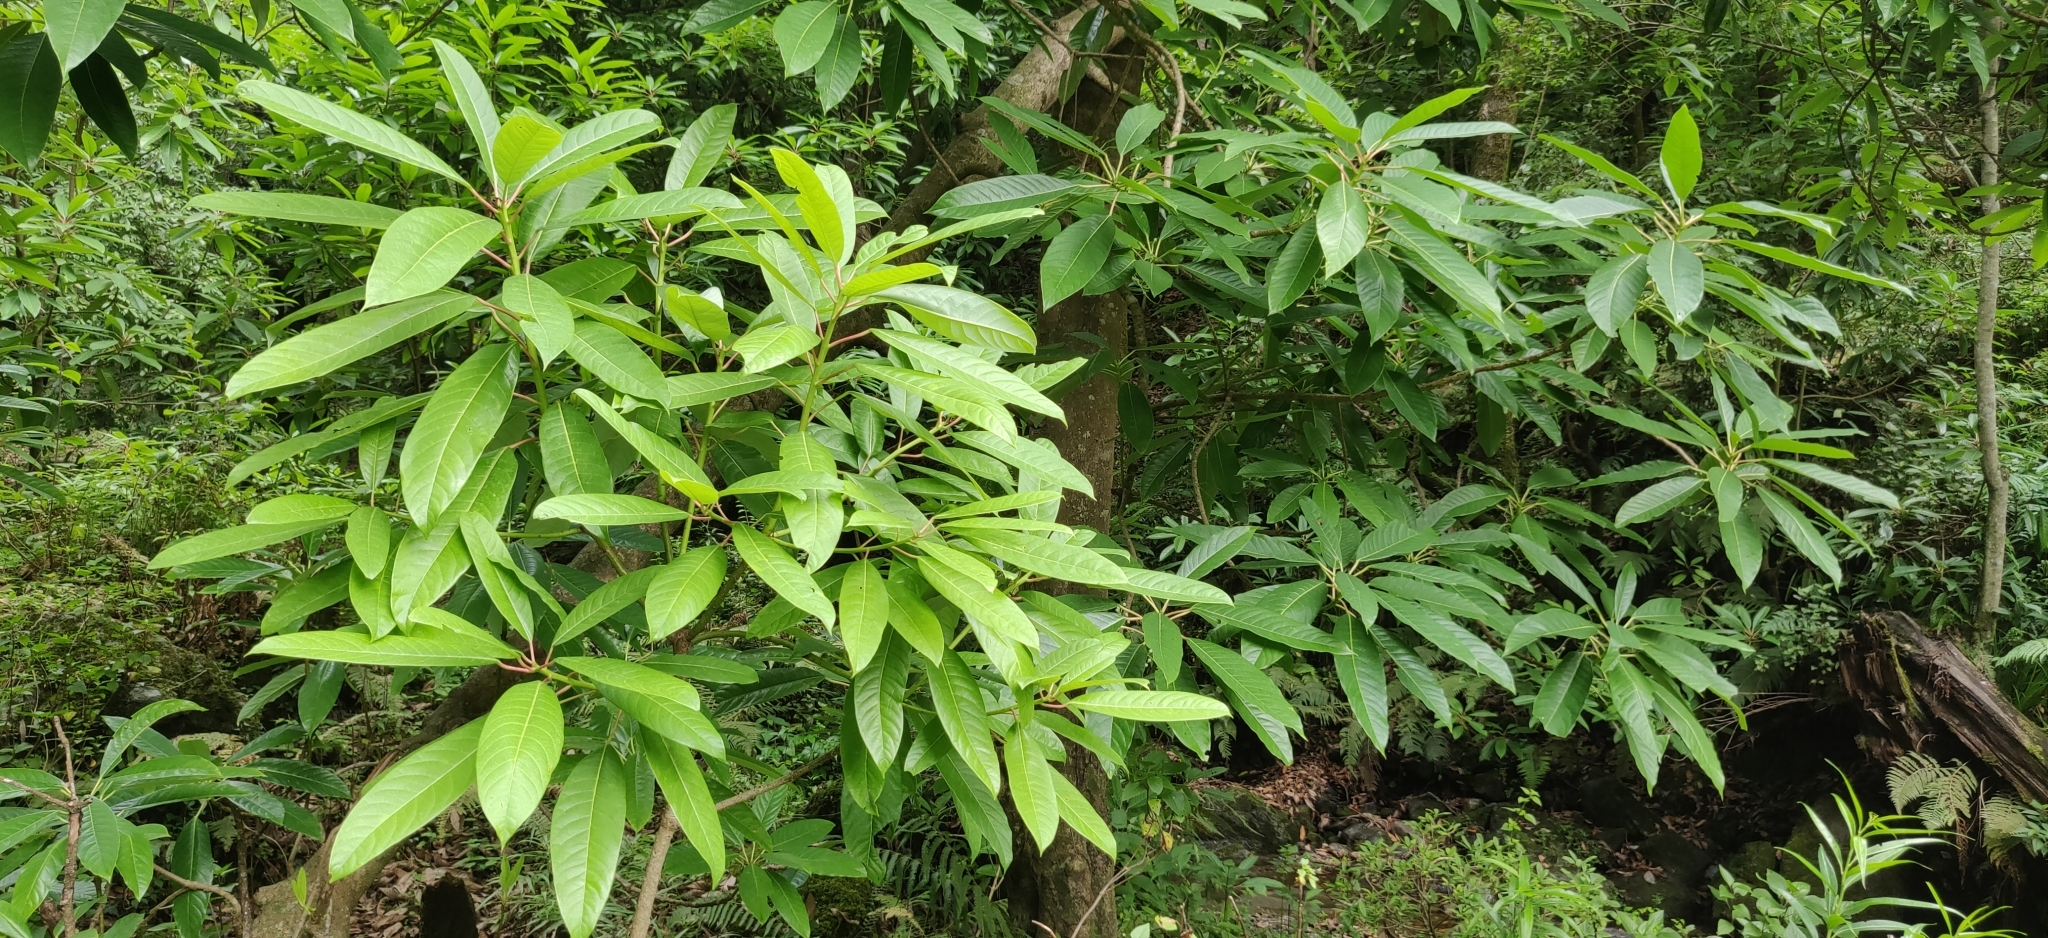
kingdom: Plantae
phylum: Tracheophyta
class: Magnoliopsida
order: Saxifragales
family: Daphniphyllaceae
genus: Daphniphyllum
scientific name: Daphniphyllum
